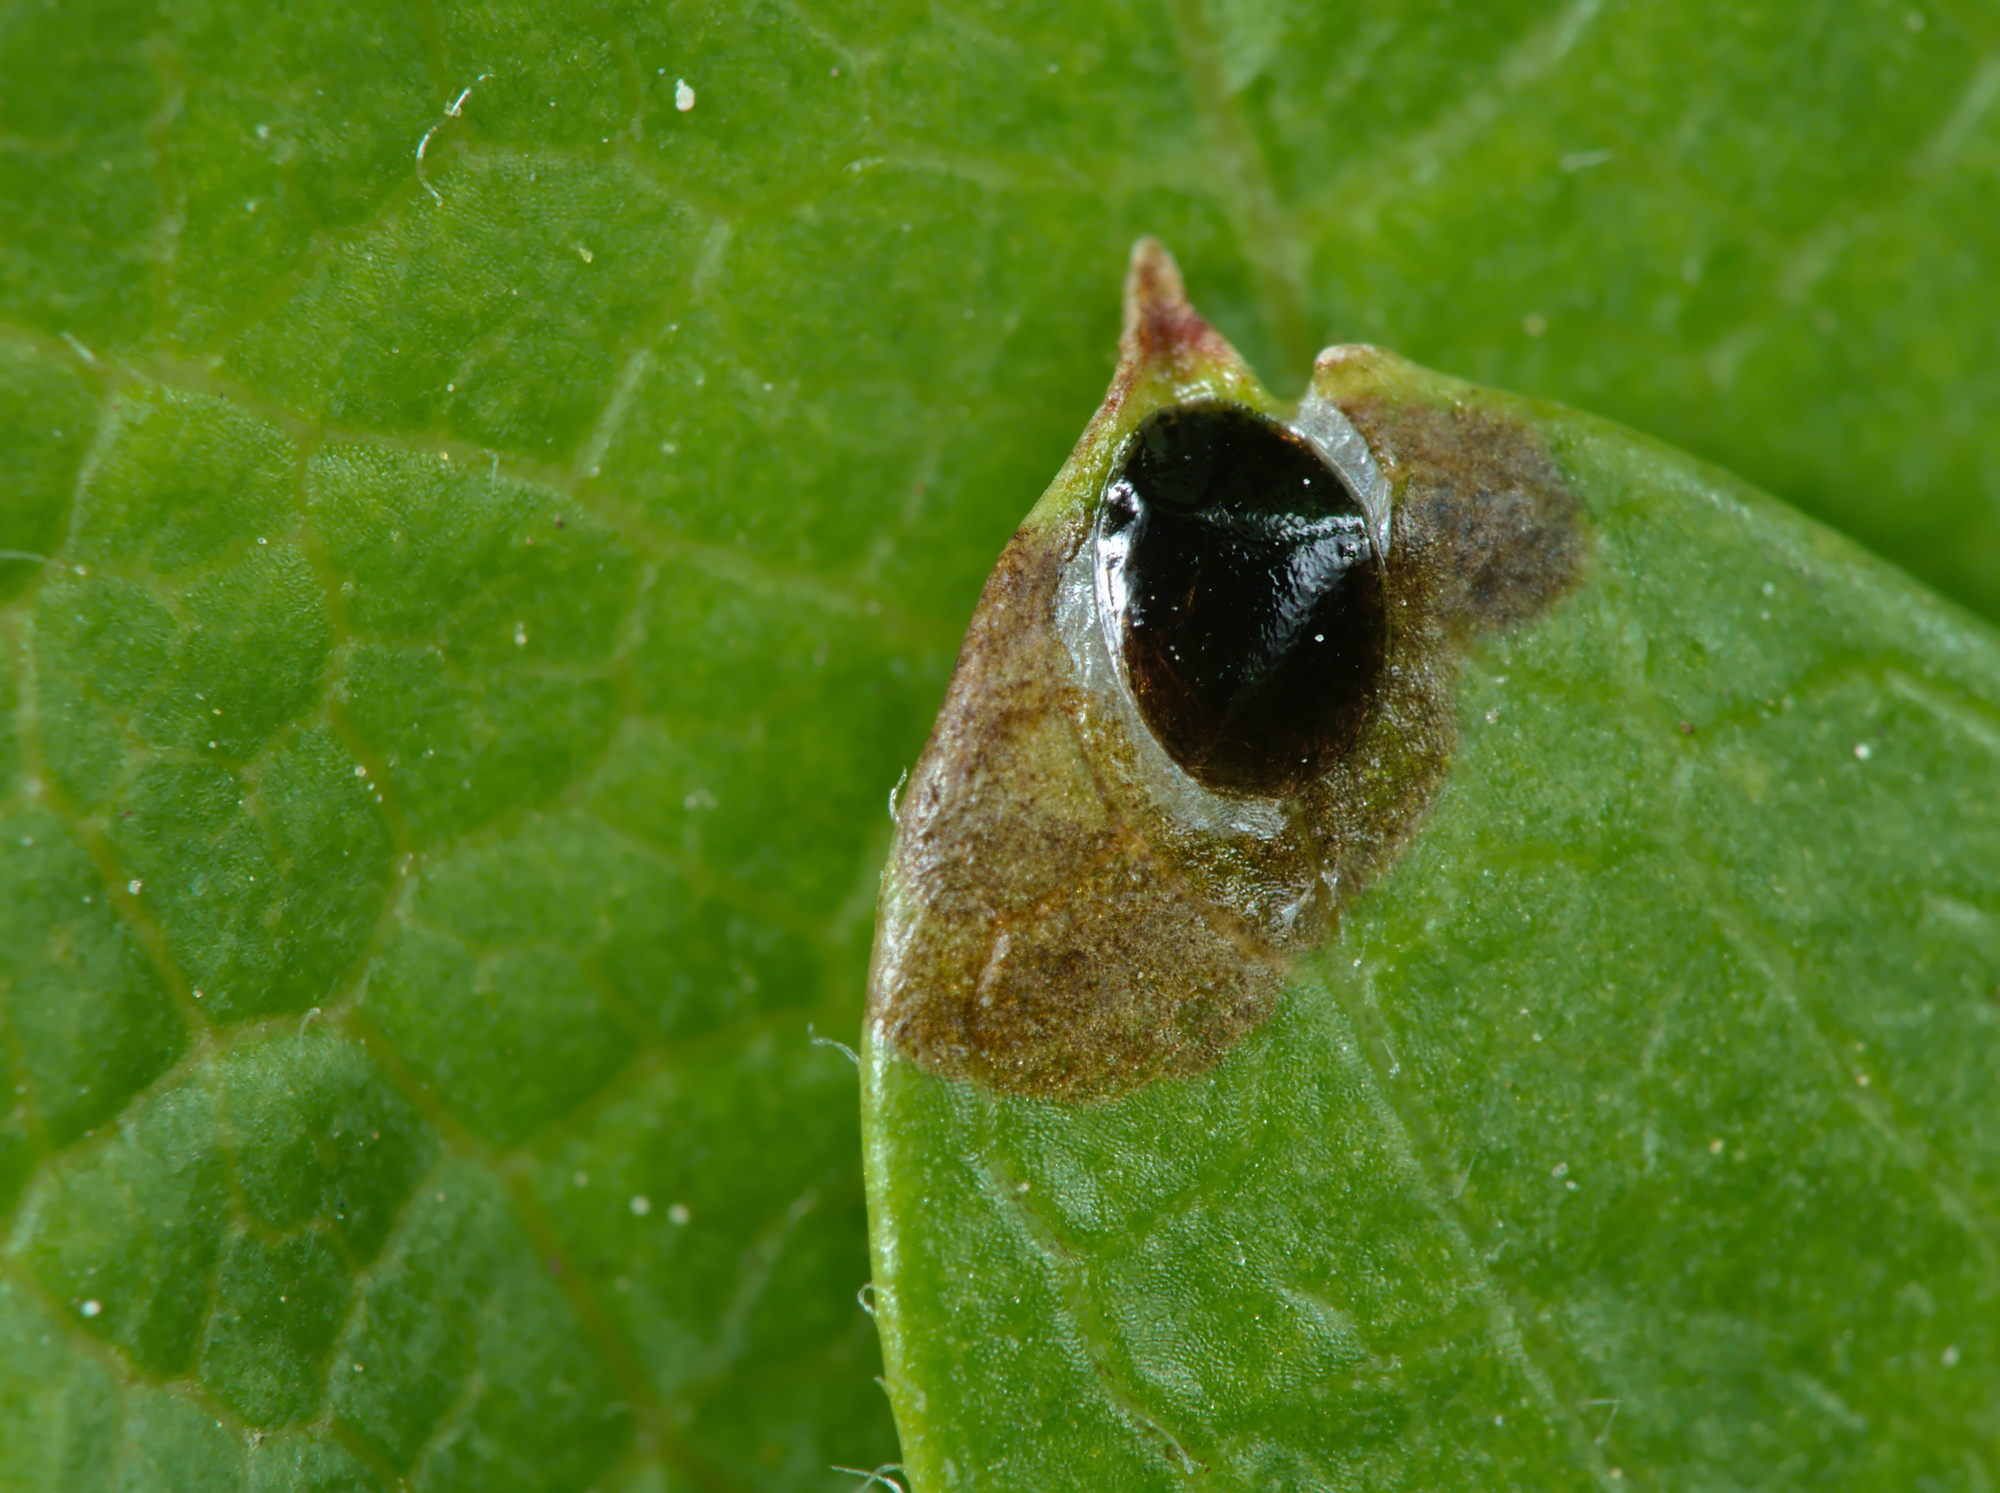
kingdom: Animalia
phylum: Arthropoda
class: Insecta
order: Coleoptera
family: Buprestidae
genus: Trachys
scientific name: Trachys minutus
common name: Metallic wood-boring beetle
